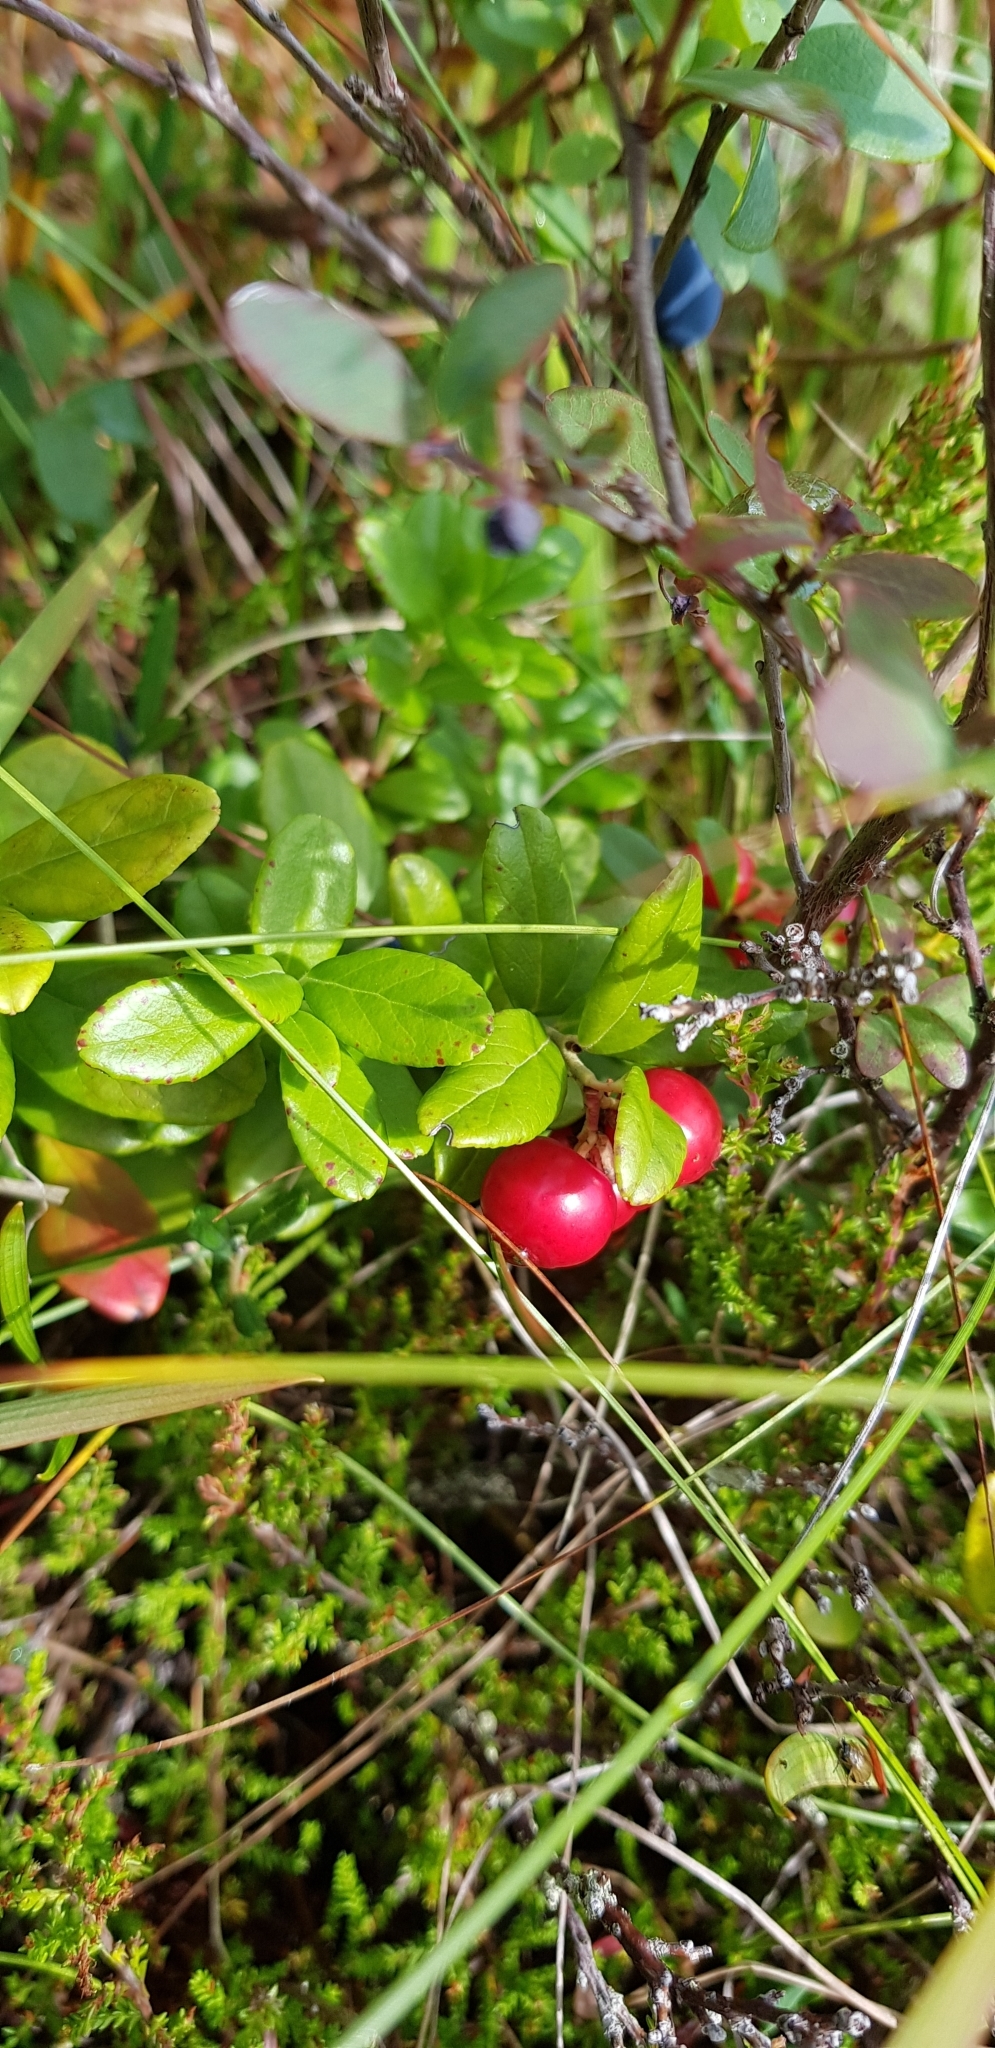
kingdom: Plantae
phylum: Tracheophyta
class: Magnoliopsida
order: Ericales
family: Ericaceae
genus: Vaccinium
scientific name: Vaccinium vitis-idaea
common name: Cowberry
